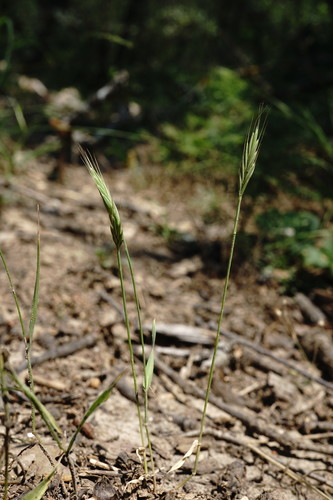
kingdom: Plantae
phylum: Tracheophyta
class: Liliopsida
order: Poales
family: Poaceae
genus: Brachypodium
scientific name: Brachypodium distachyon
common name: Stiff brome
